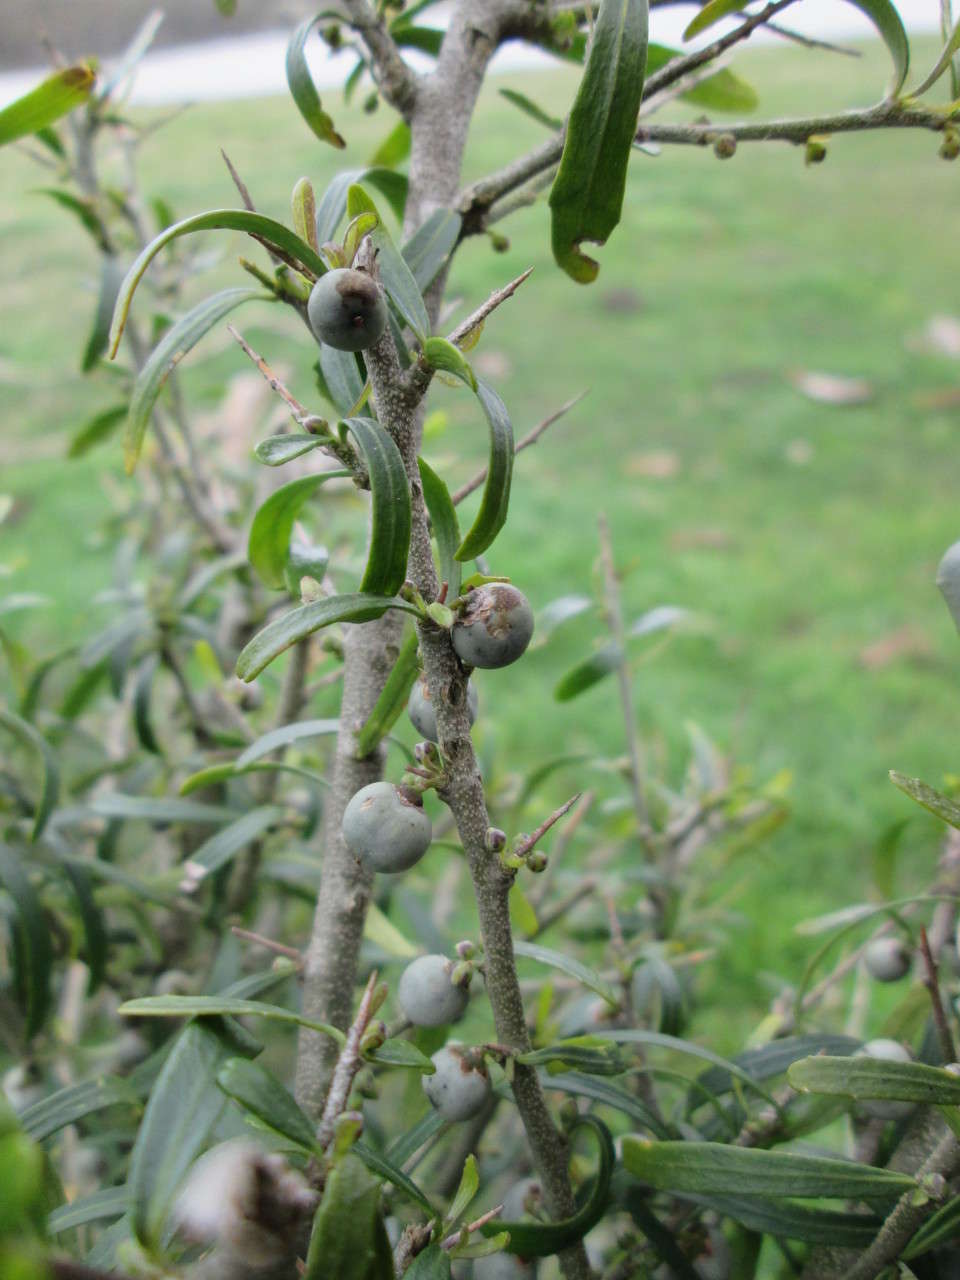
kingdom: Plantae
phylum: Tracheophyta
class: Magnoliopsida
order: Malpighiales
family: Violaceae
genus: Melicytus
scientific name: Melicytus dentatus
